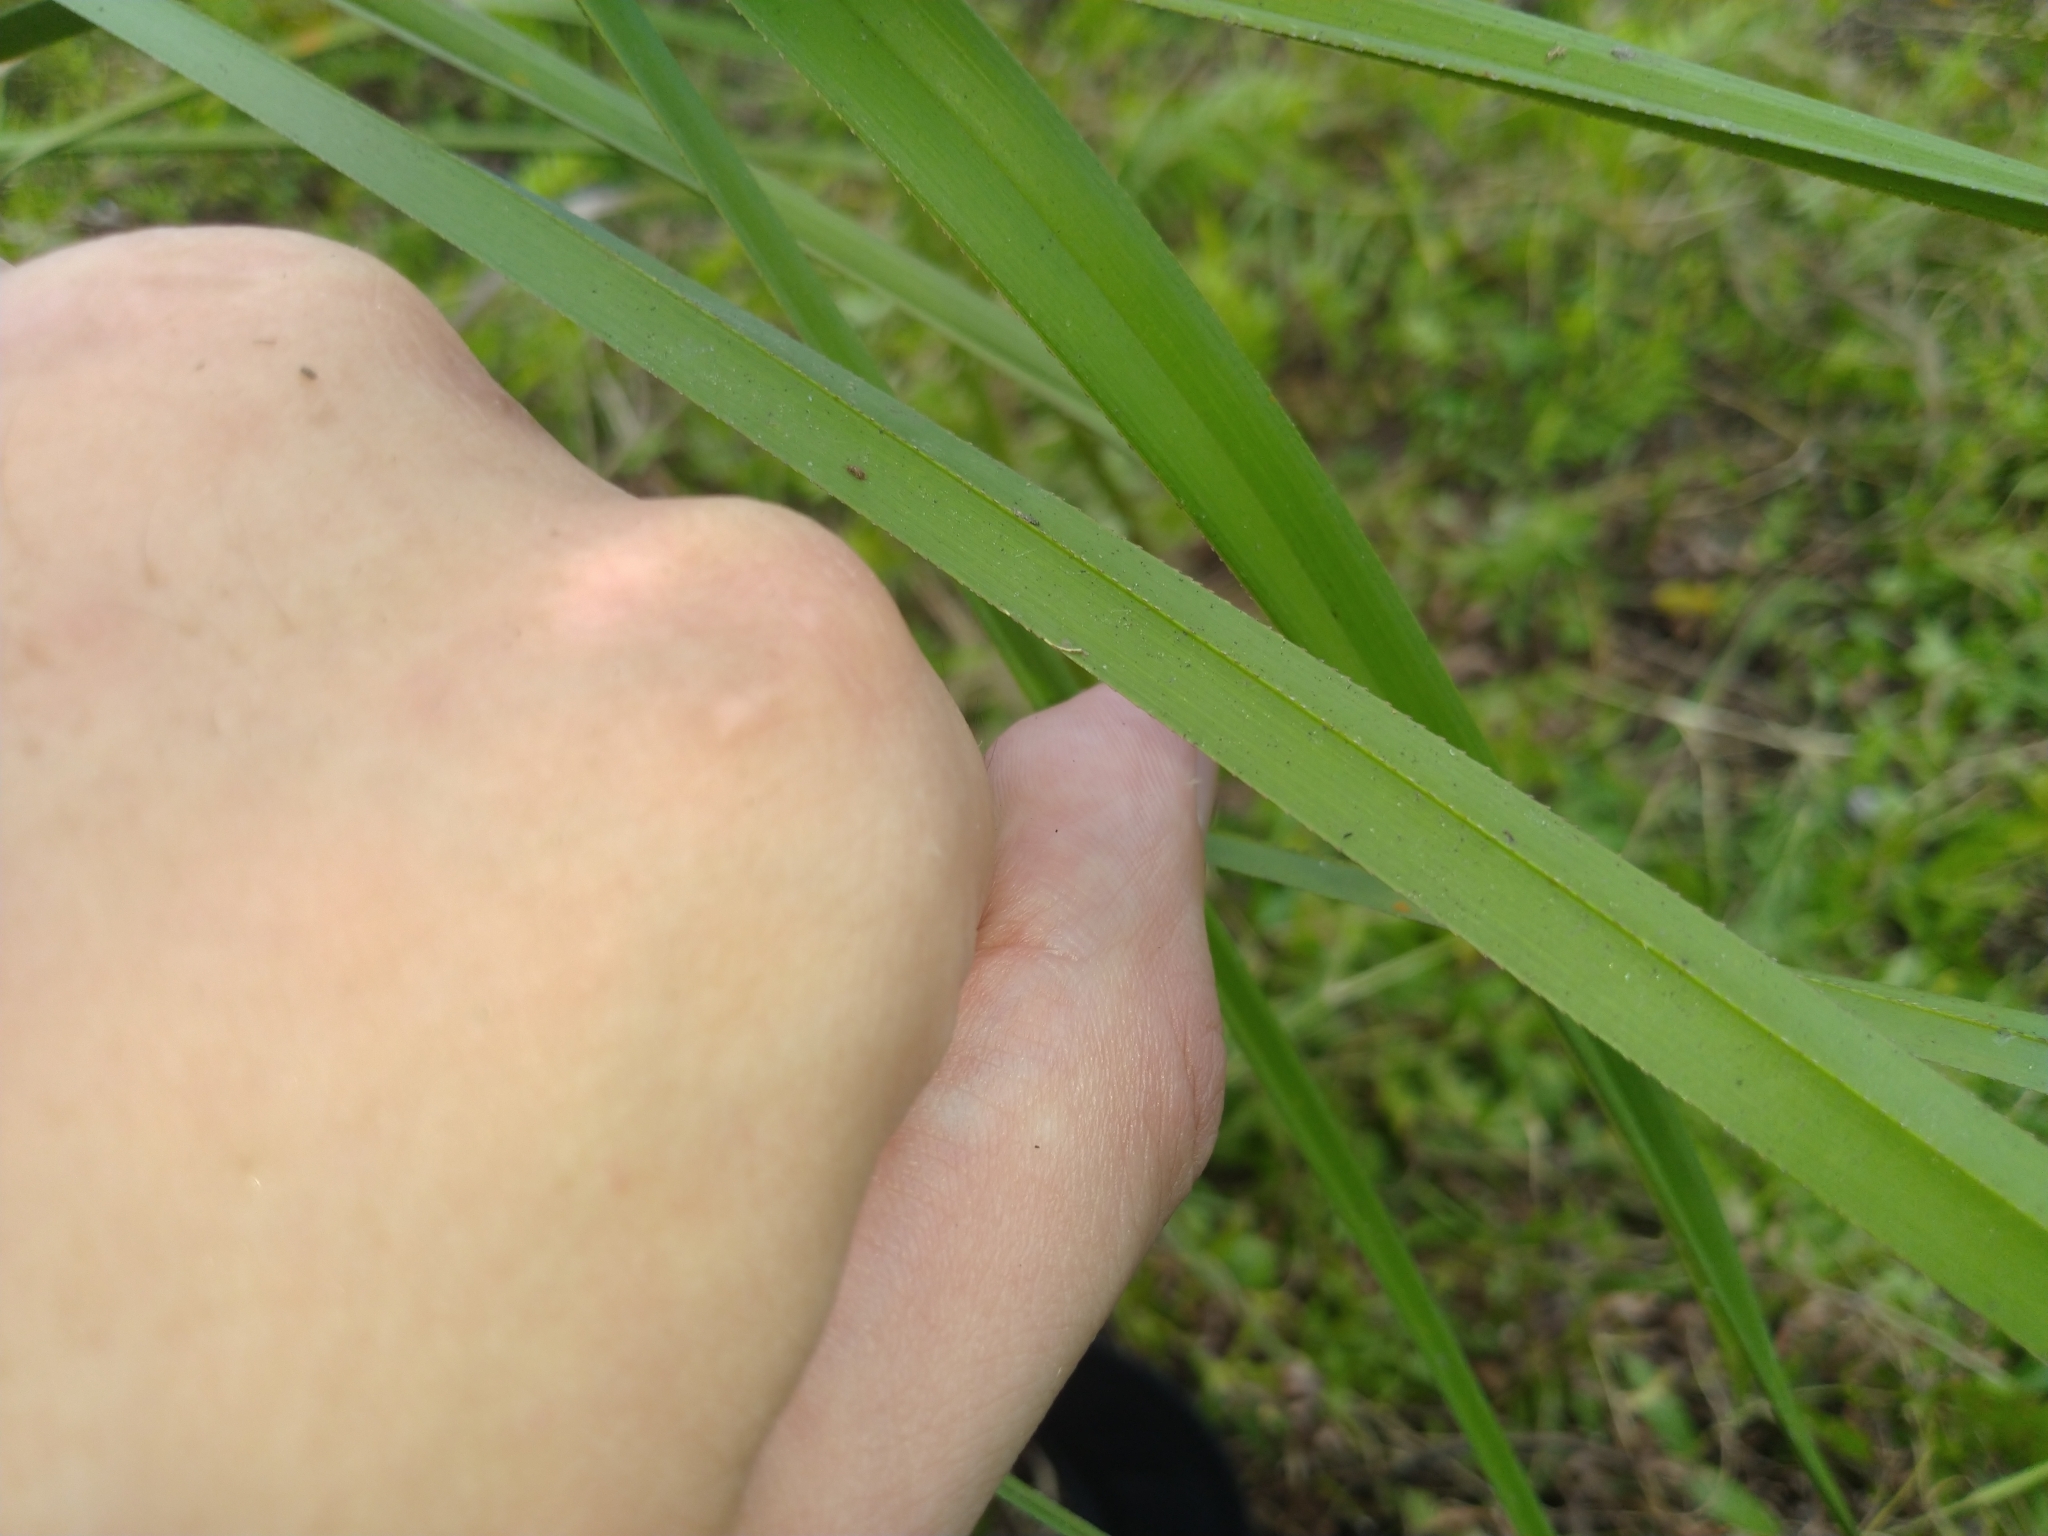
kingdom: Plantae
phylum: Tracheophyta
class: Liliopsida
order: Poales
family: Cyperaceae
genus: Cladium
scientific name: Cladium mariscus
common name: Great fen-sedge
